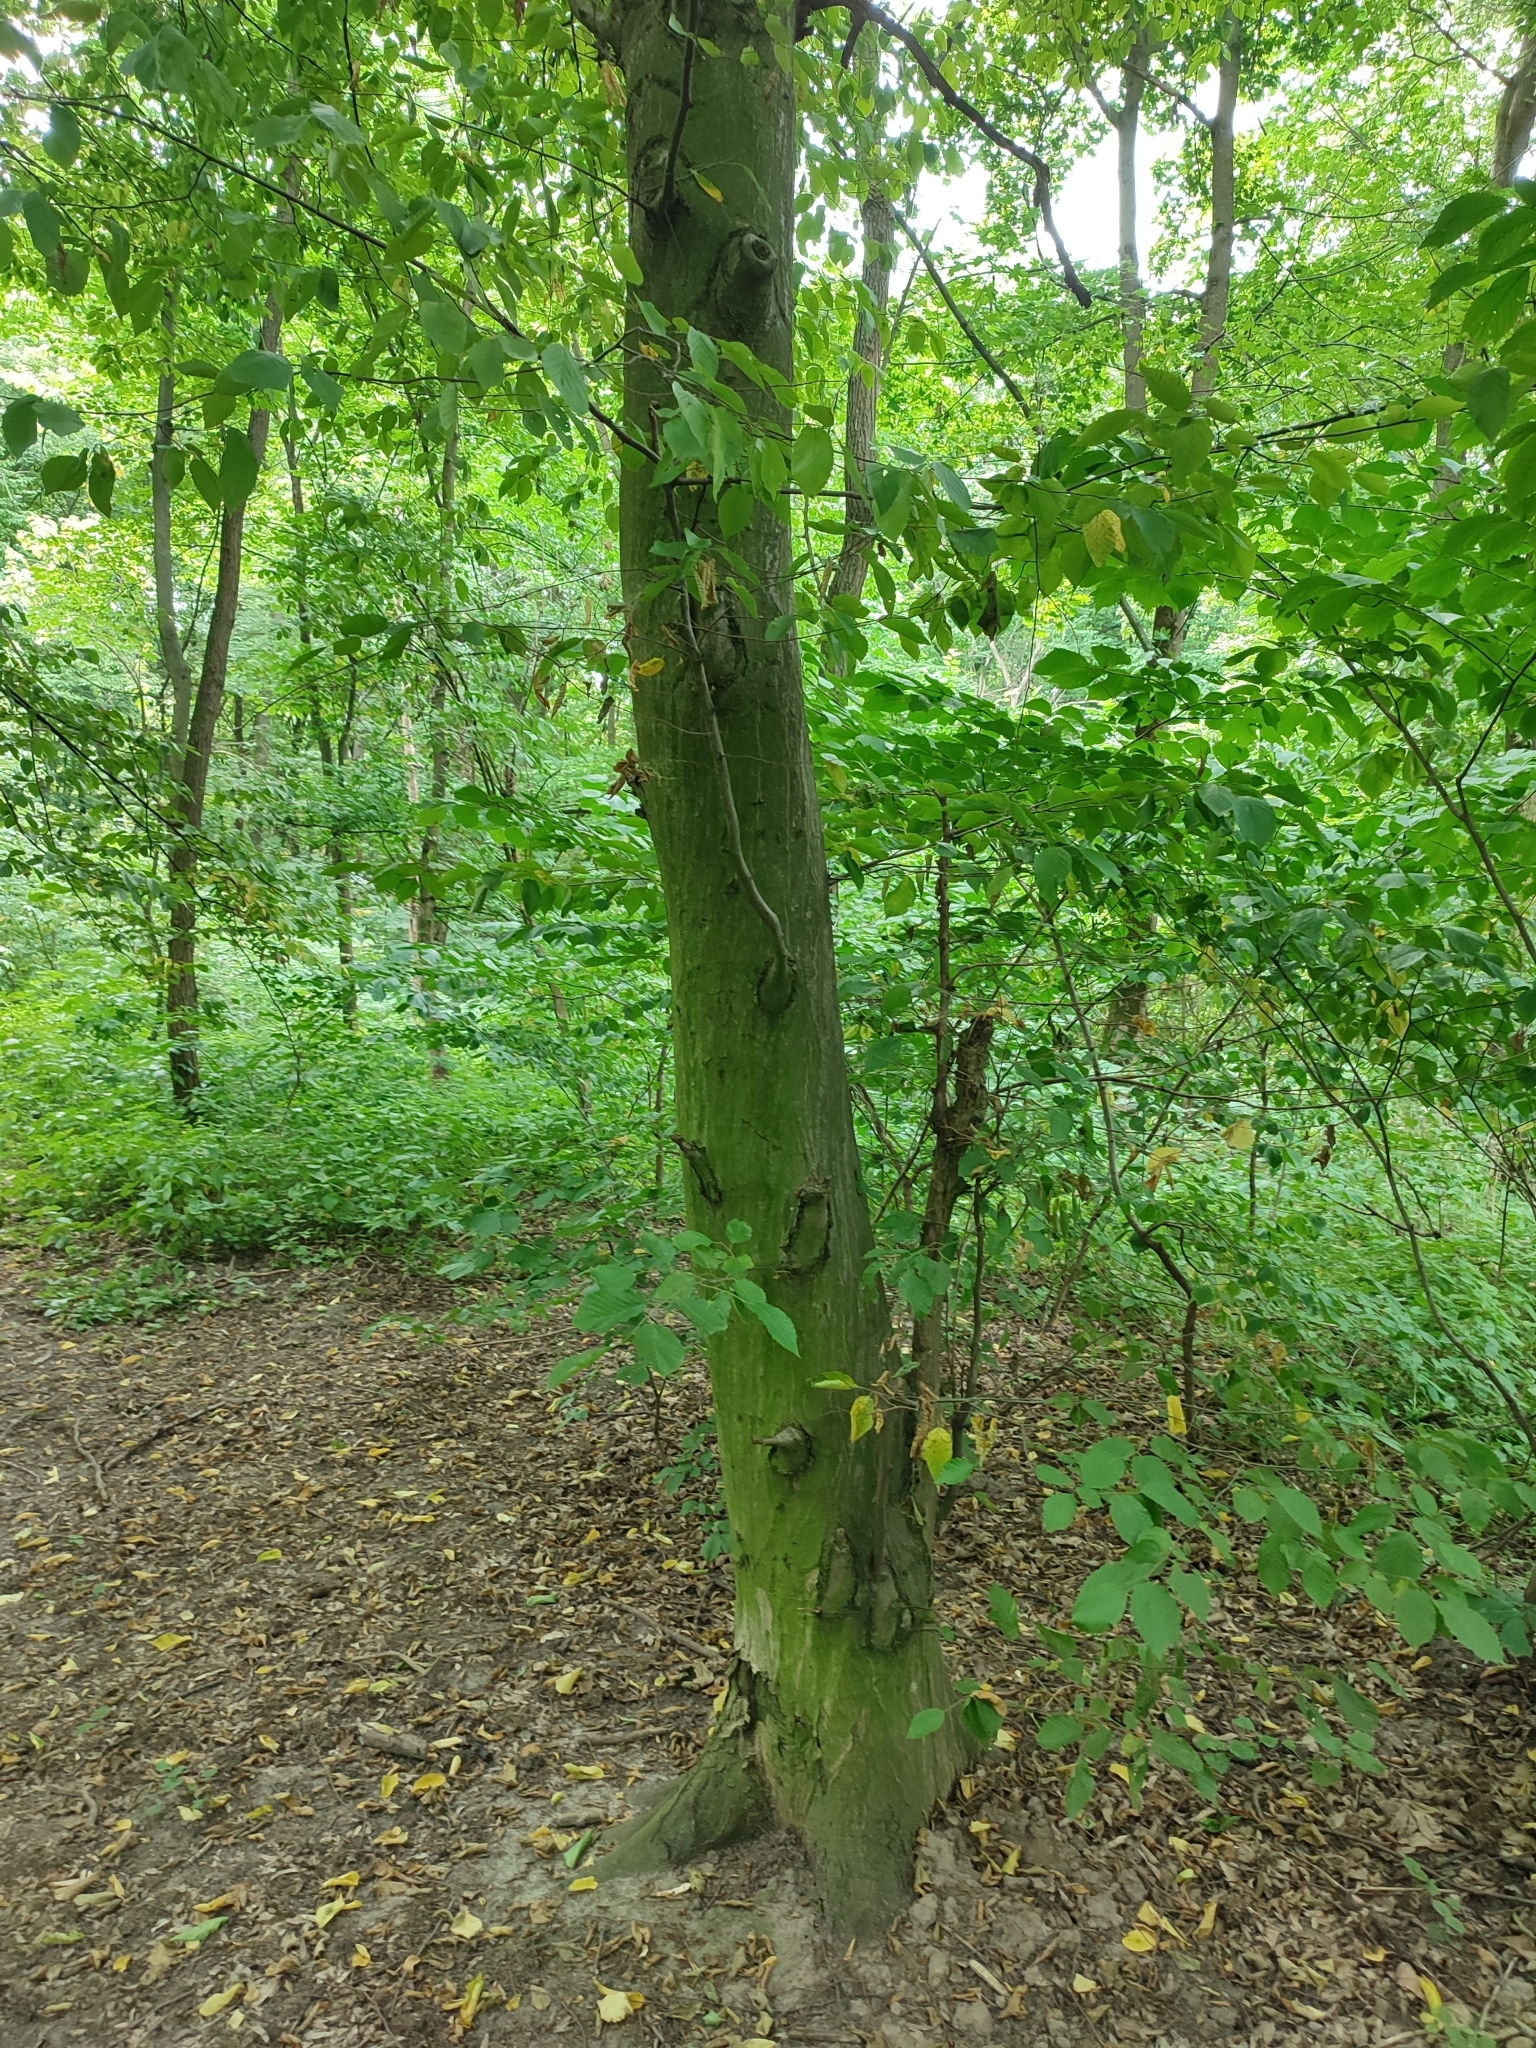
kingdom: Plantae
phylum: Tracheophyta
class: Magnoliopsida
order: Fagales
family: Betulaceae
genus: Carpinus
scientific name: Carpinus betulus
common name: Hornbeam
